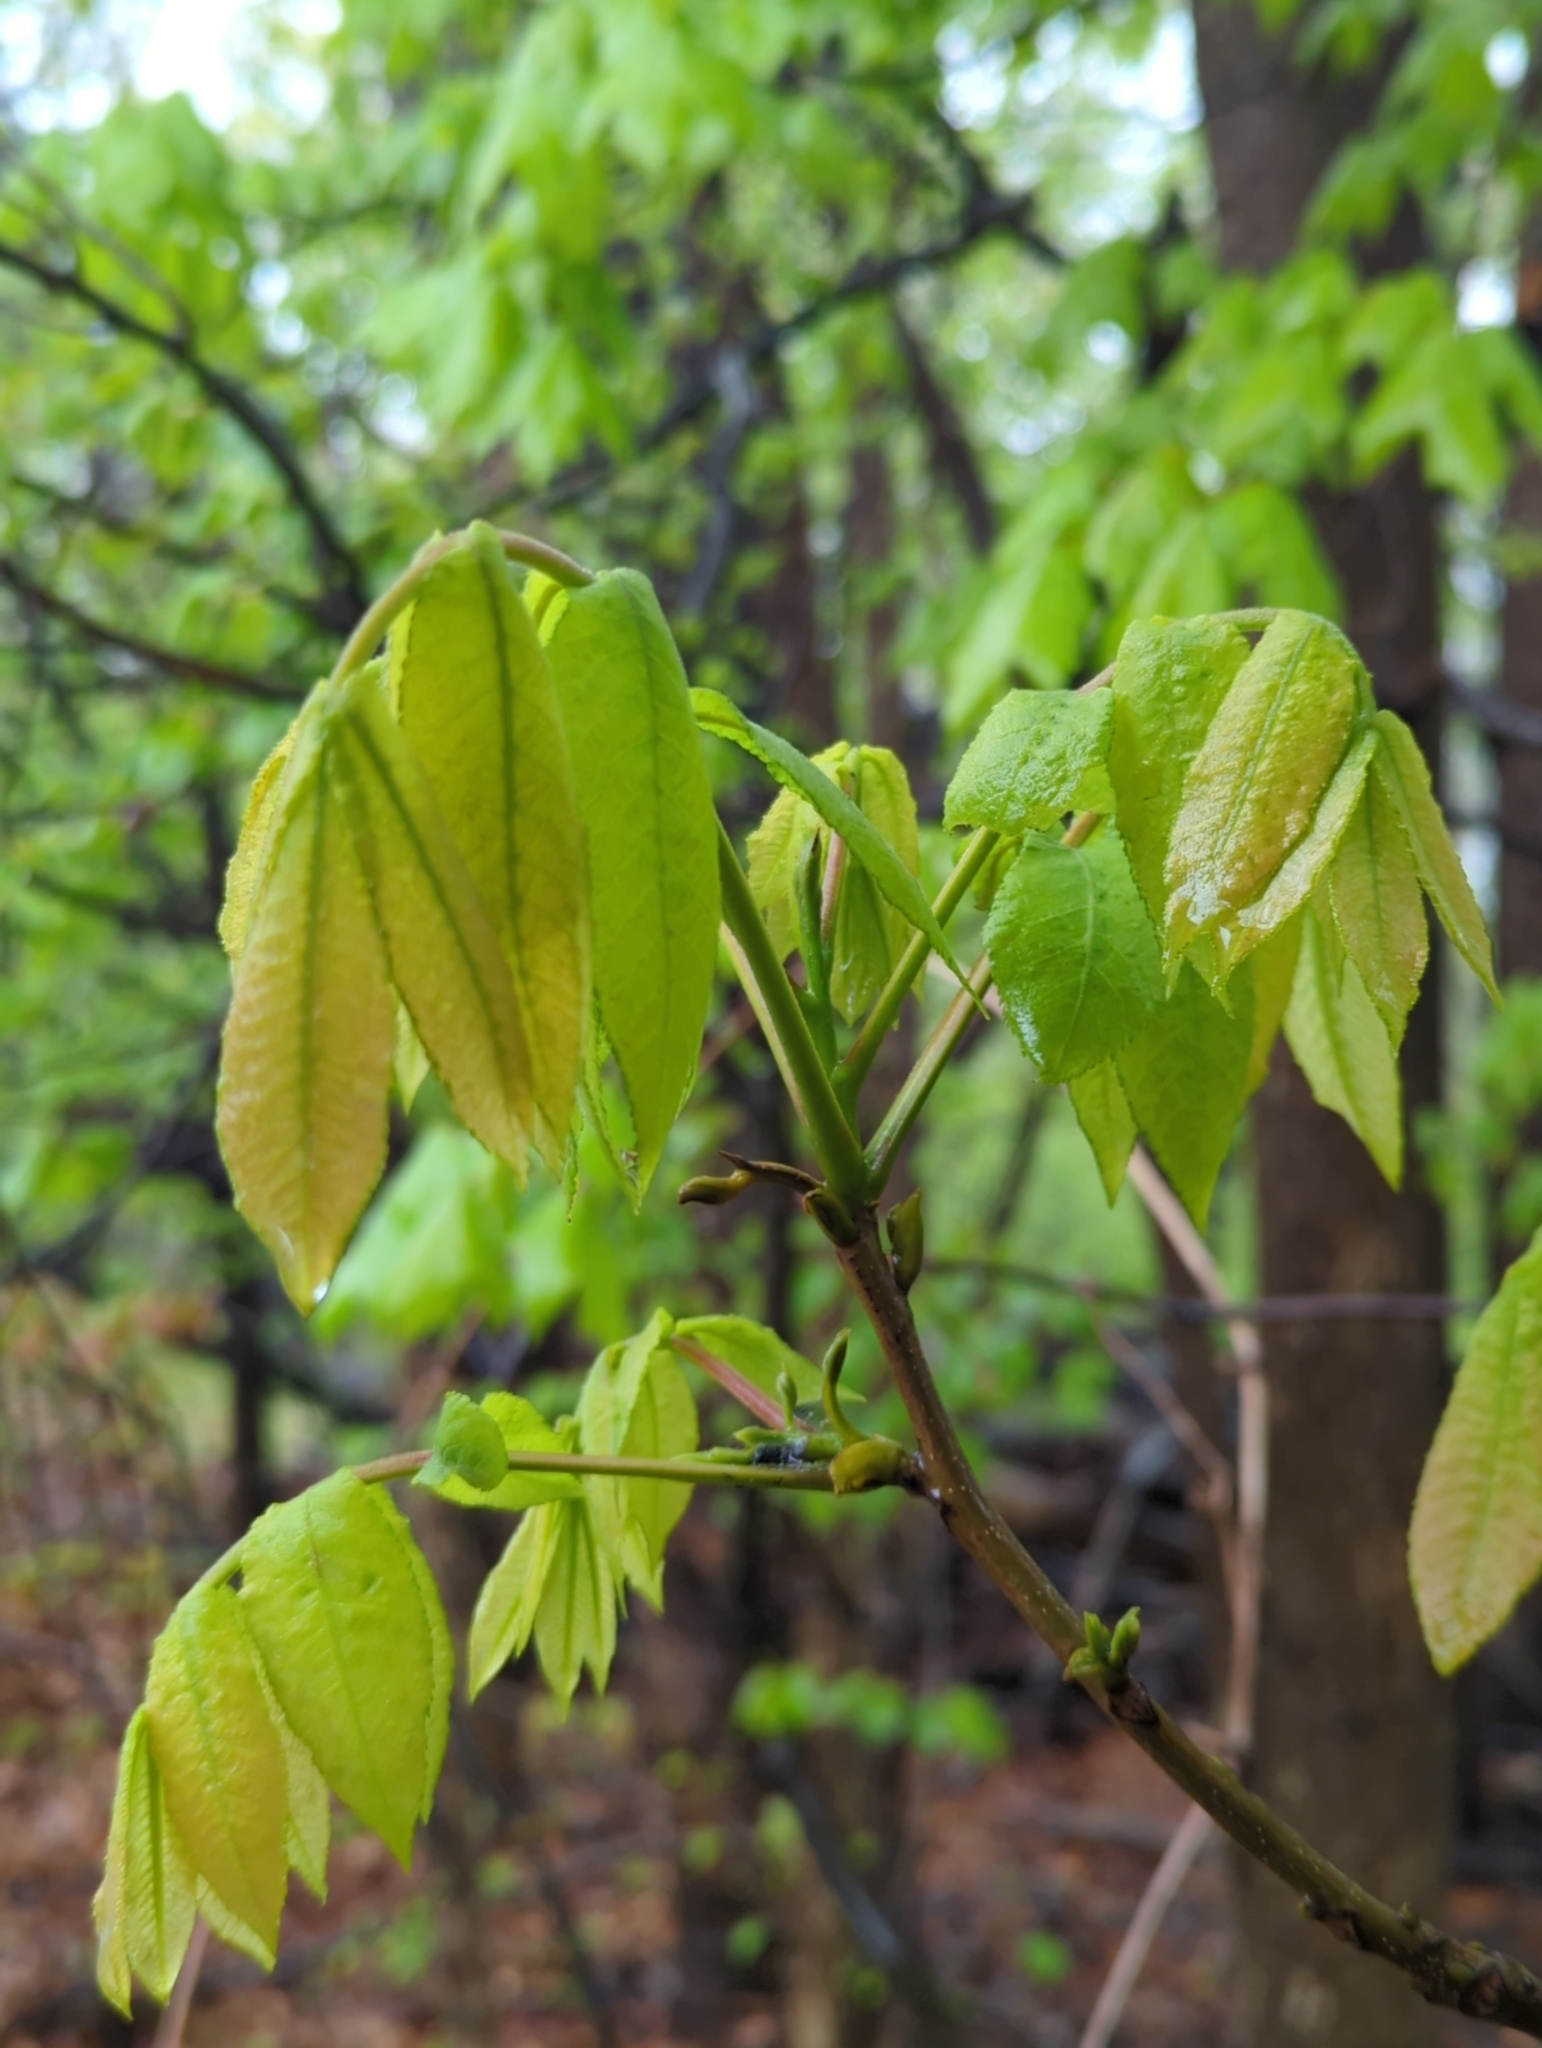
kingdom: Plantae
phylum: Tracheophyta
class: Magnoliopsida
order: Fagales
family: Juglandaceae
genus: Carya
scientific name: Carya cordiformis
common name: Bitternut hickory
